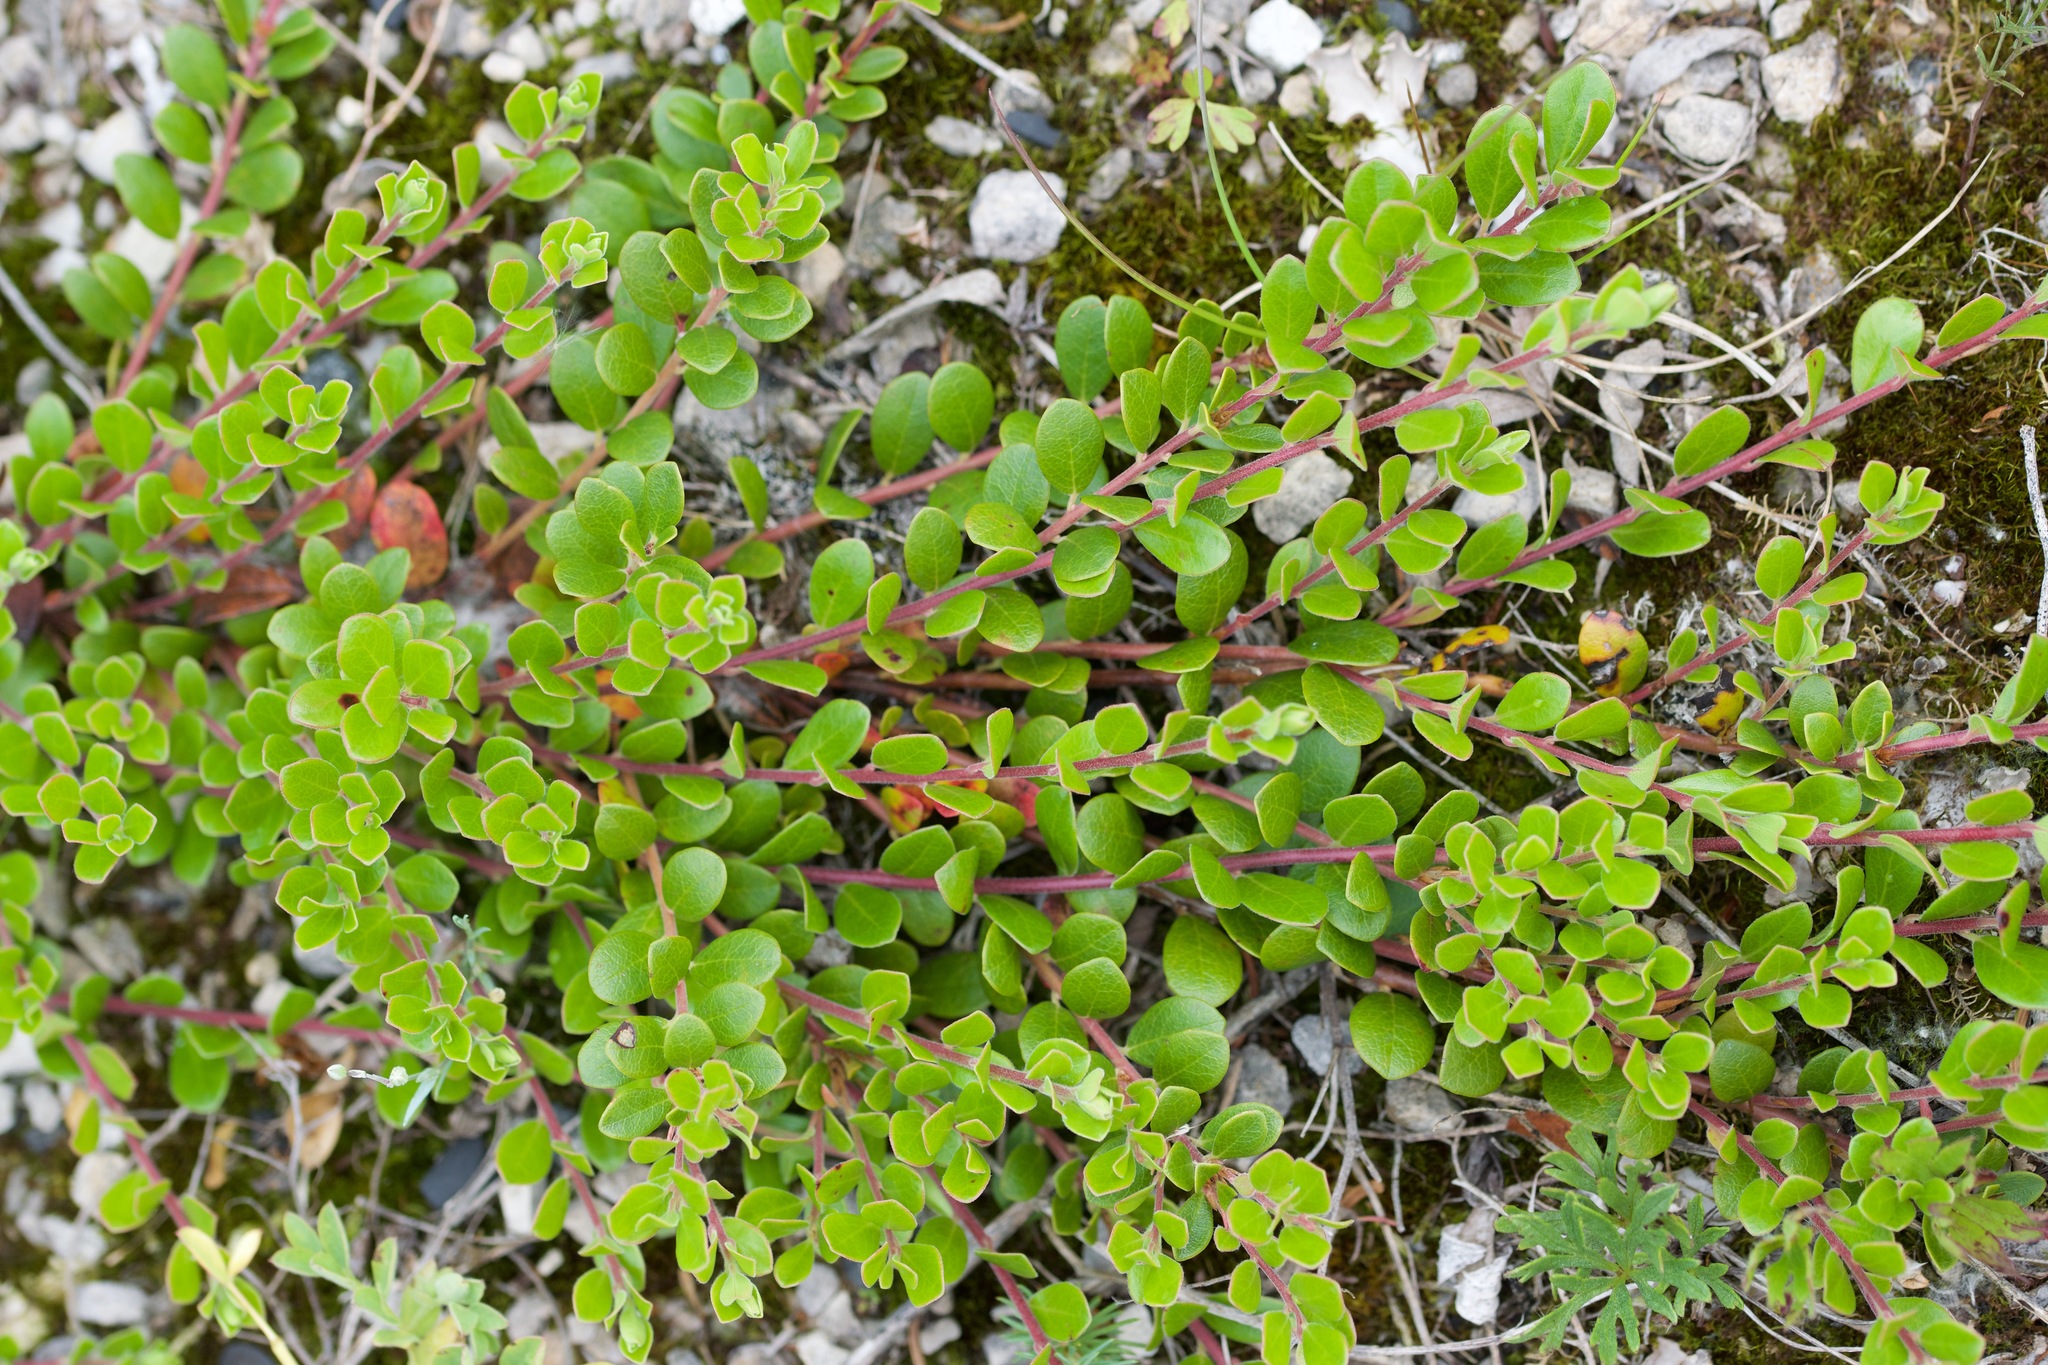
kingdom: Plantae
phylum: Tracheophyta
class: Magnoliopsida
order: Ericales
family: Ericaceae
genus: Arctostaphylos
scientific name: Arctostaphylos uva-ursi
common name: Bearberry
